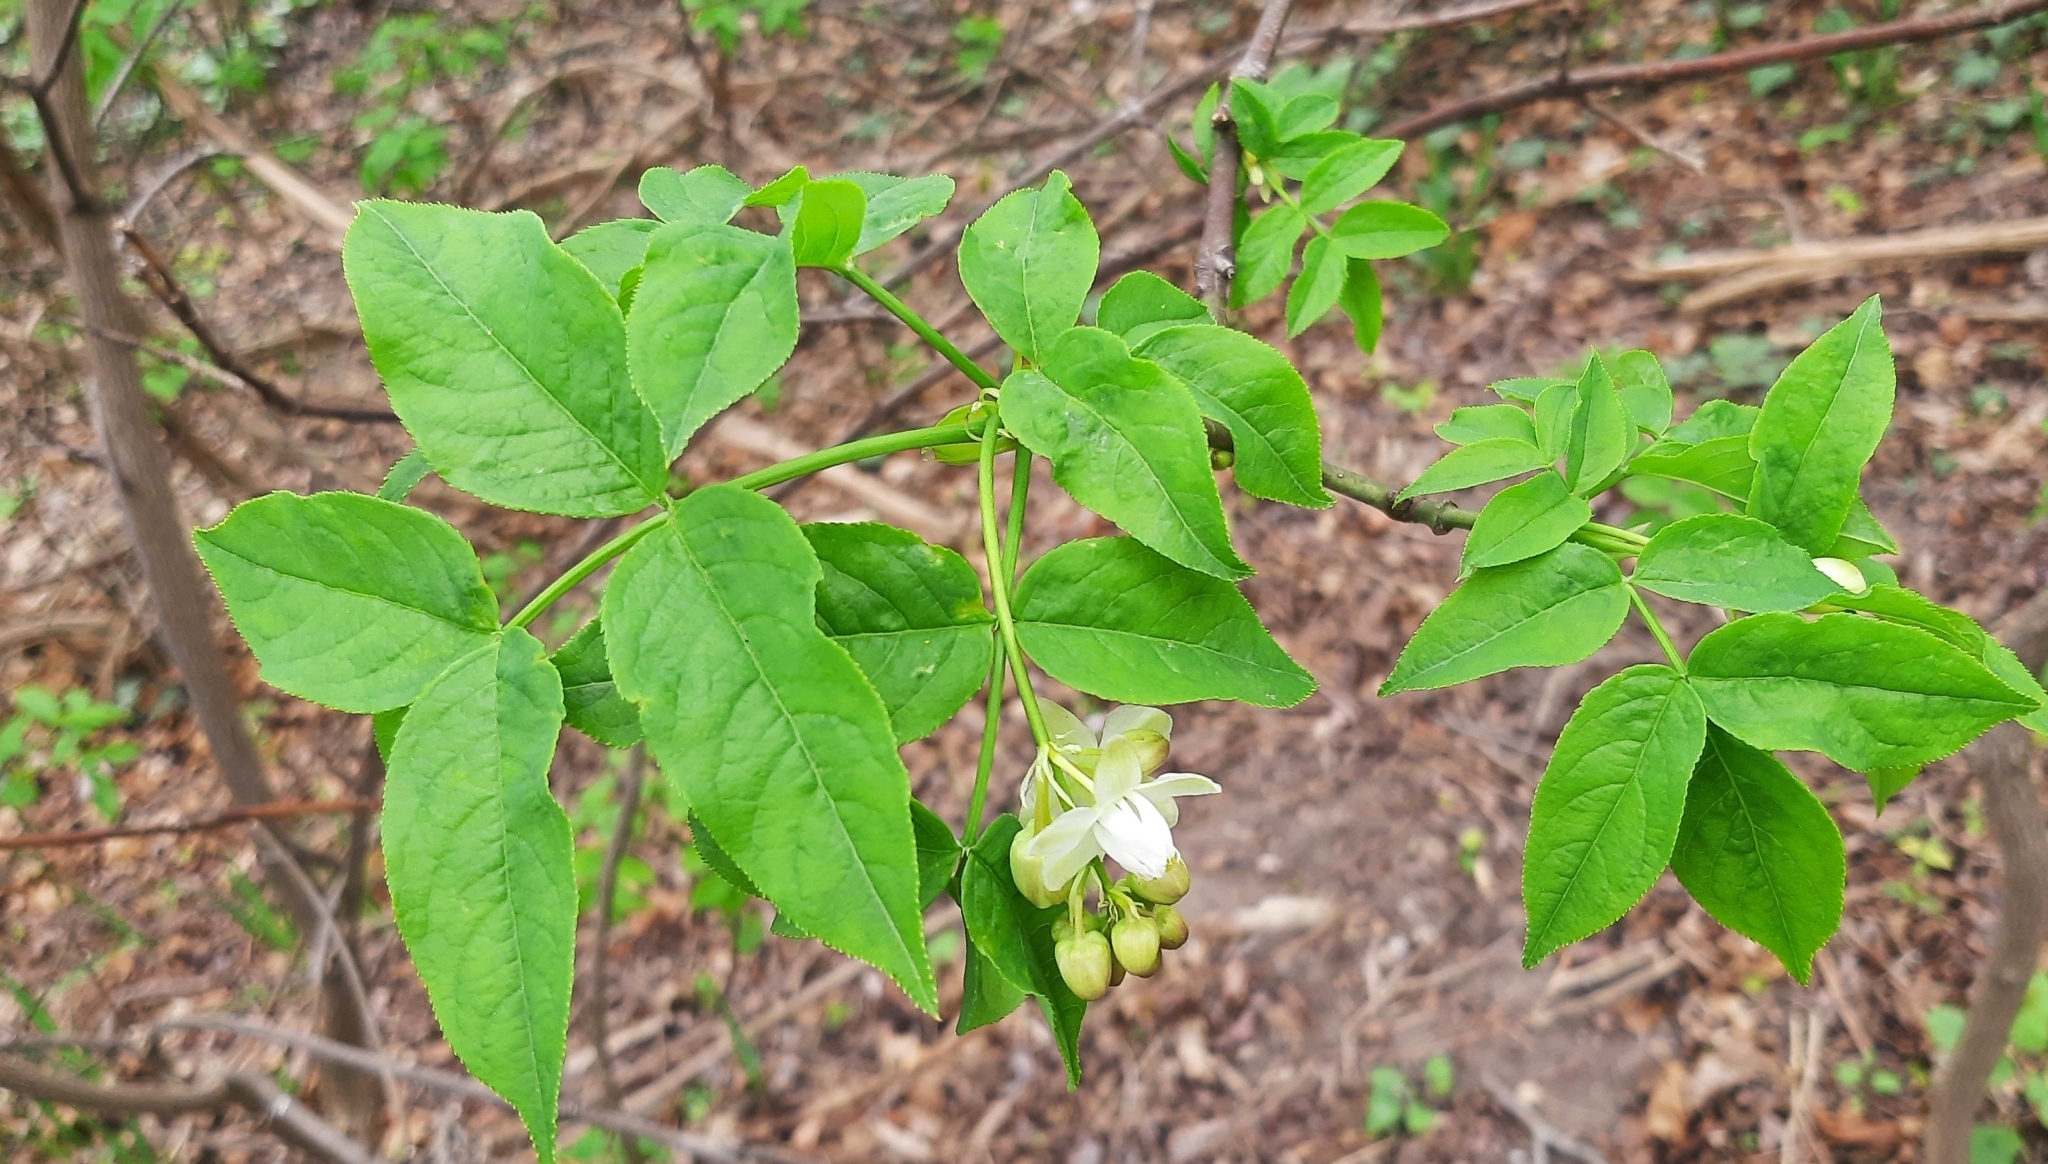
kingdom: Plantae
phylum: Tracheophyta
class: Magnoliopsida
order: Crossosomatales
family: Staphyleaceae
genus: Staphylea
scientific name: Staphylea pinnata
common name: Bladdernut
